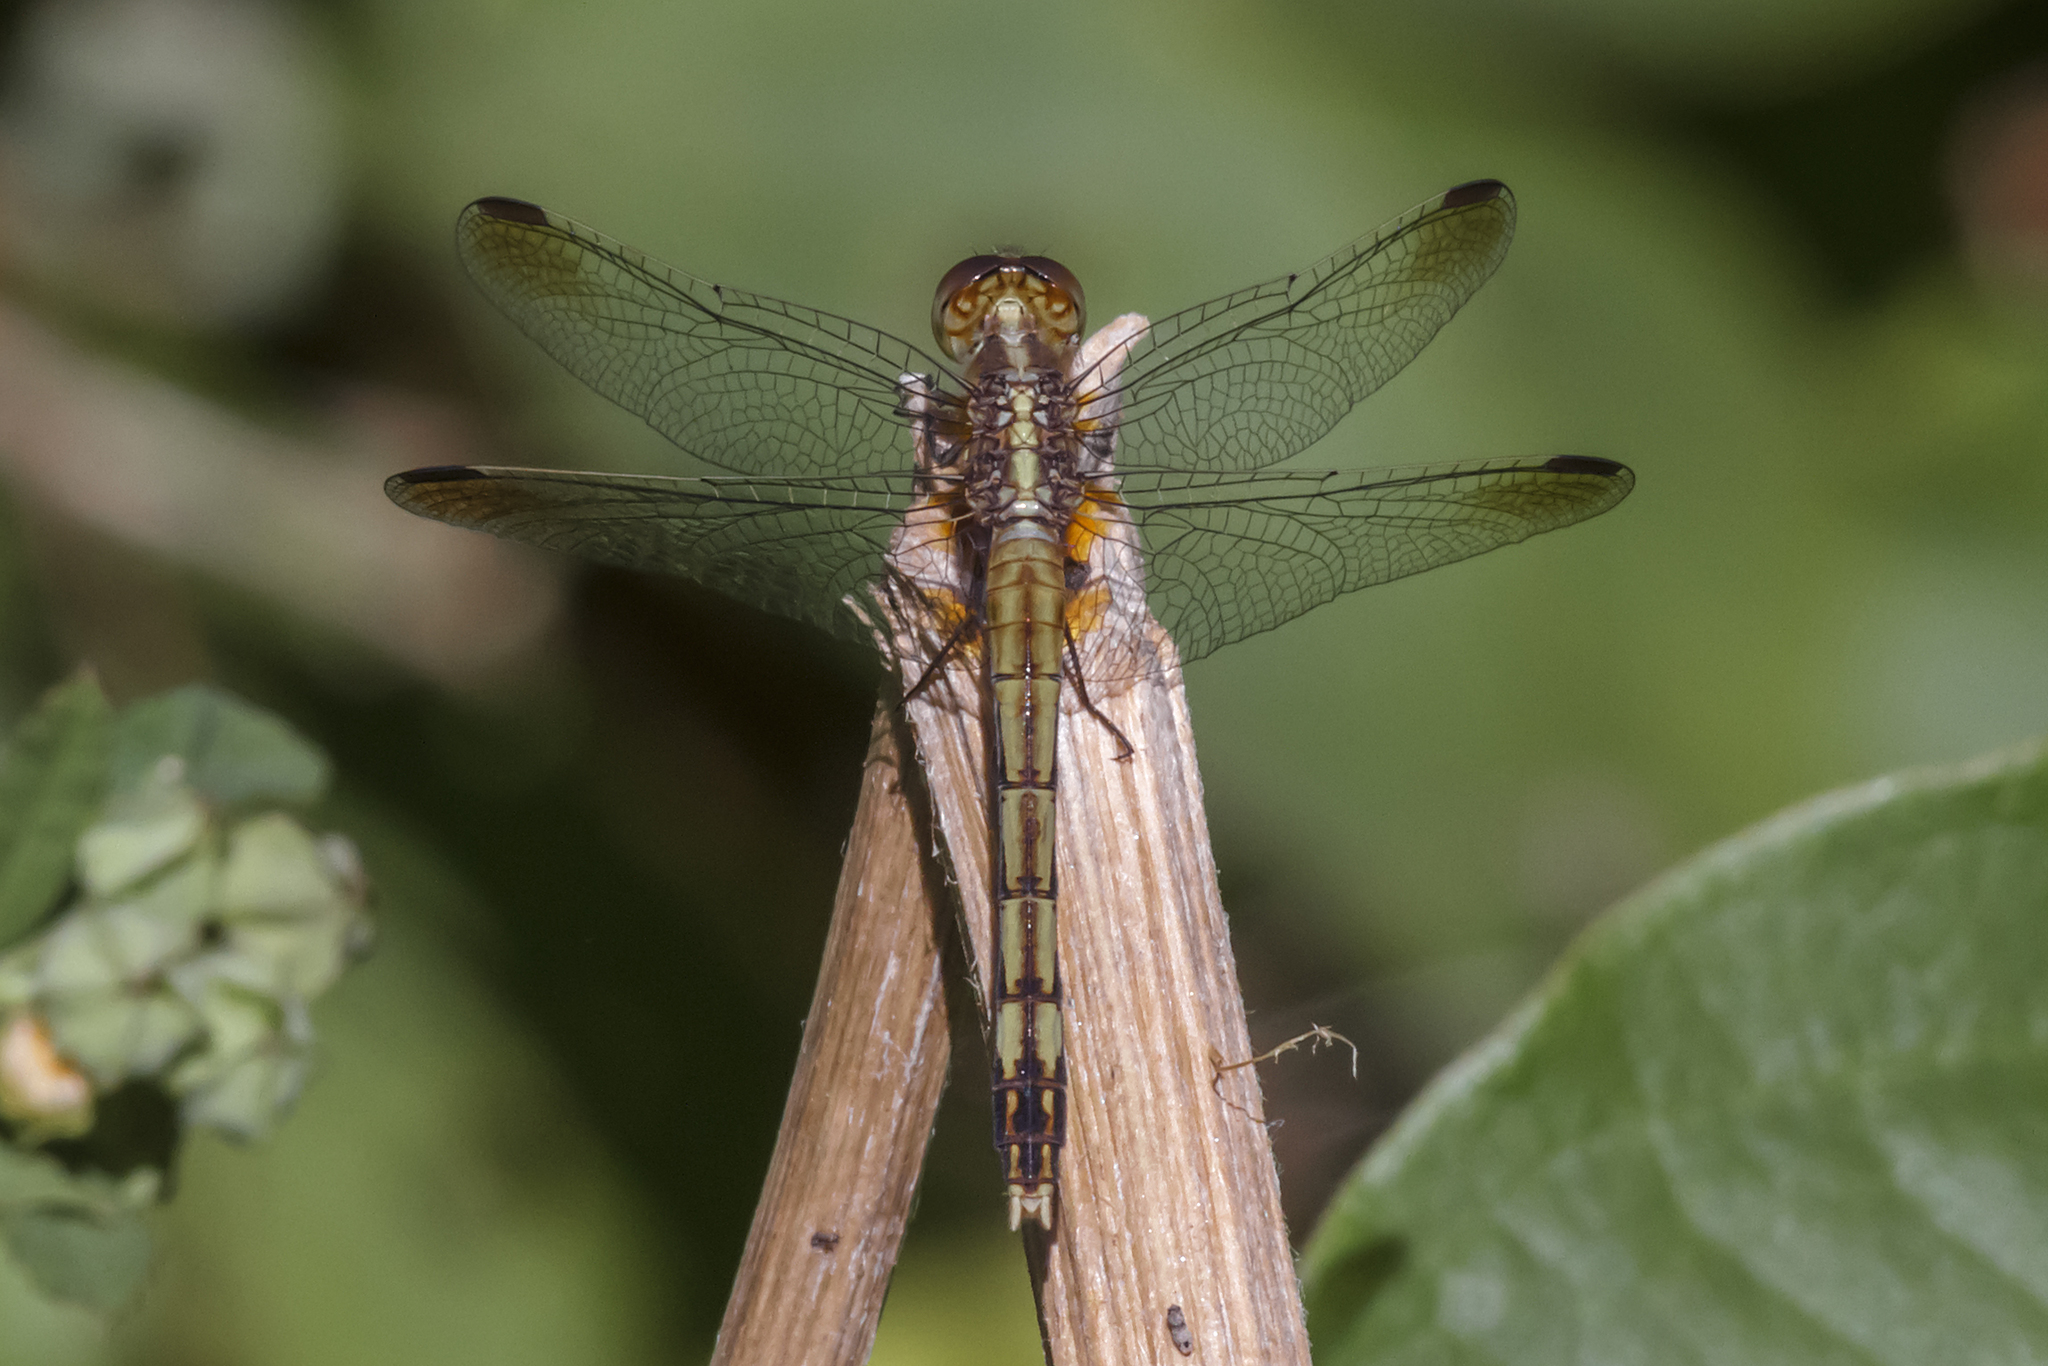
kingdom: Animalia
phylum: Arthropoda
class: Insecta
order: Odonata
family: Libellulidae
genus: Erythrodiplax
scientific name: Erythrodiplax nigricans
